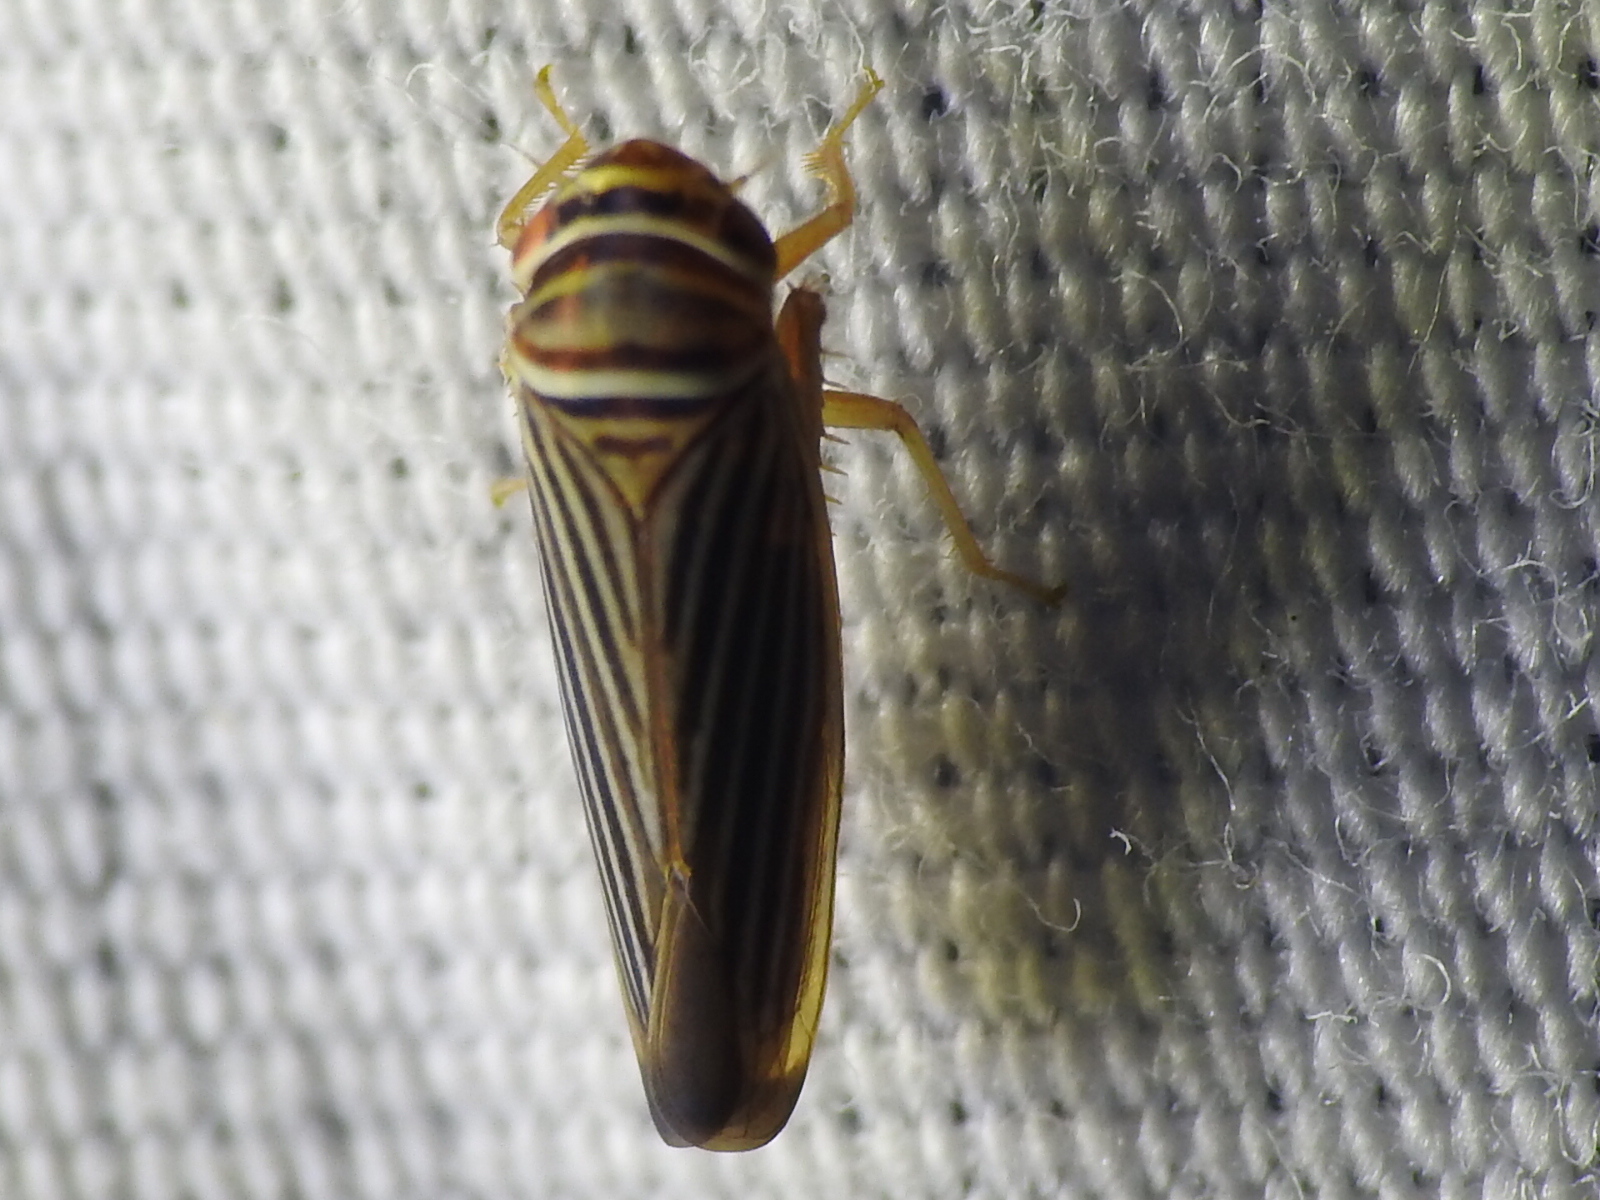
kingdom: Animalia
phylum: Arthropoda
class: Insecta
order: Hemiptera
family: Cicadellidae
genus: Tylozygus
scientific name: Tylozygus bifidus
